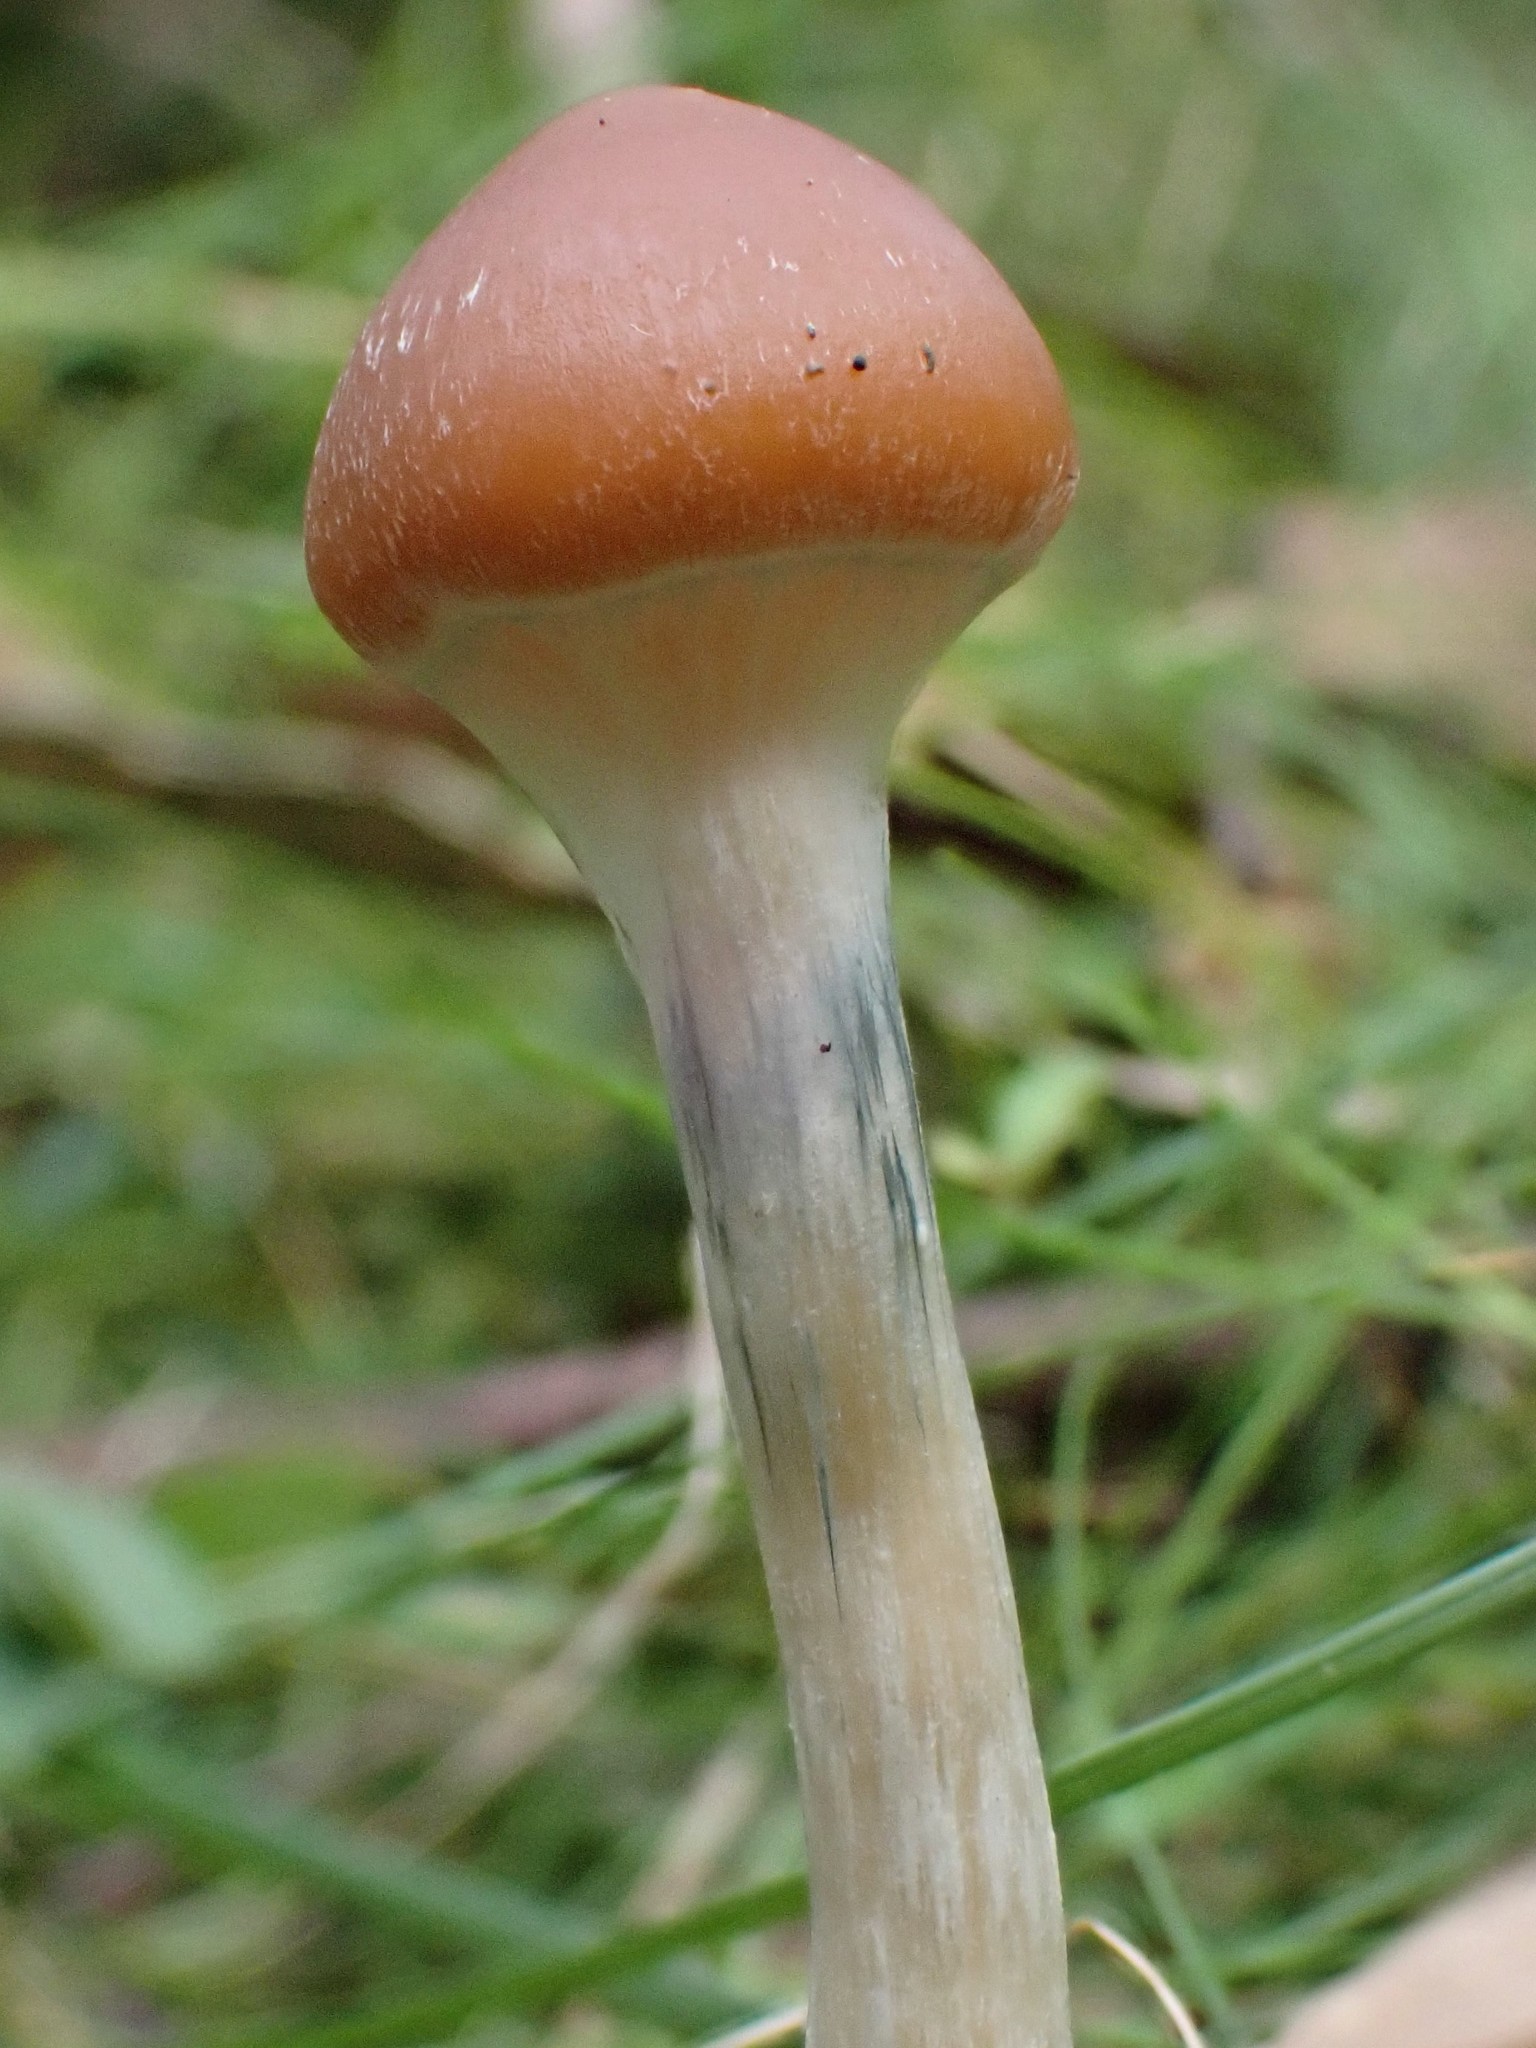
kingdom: Fungi
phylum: Basidiomycota
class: Agaricomycetes
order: Agaricales
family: Hymenogastraceae
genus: Psilocybe
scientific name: Psilocybe subaeruginosa
